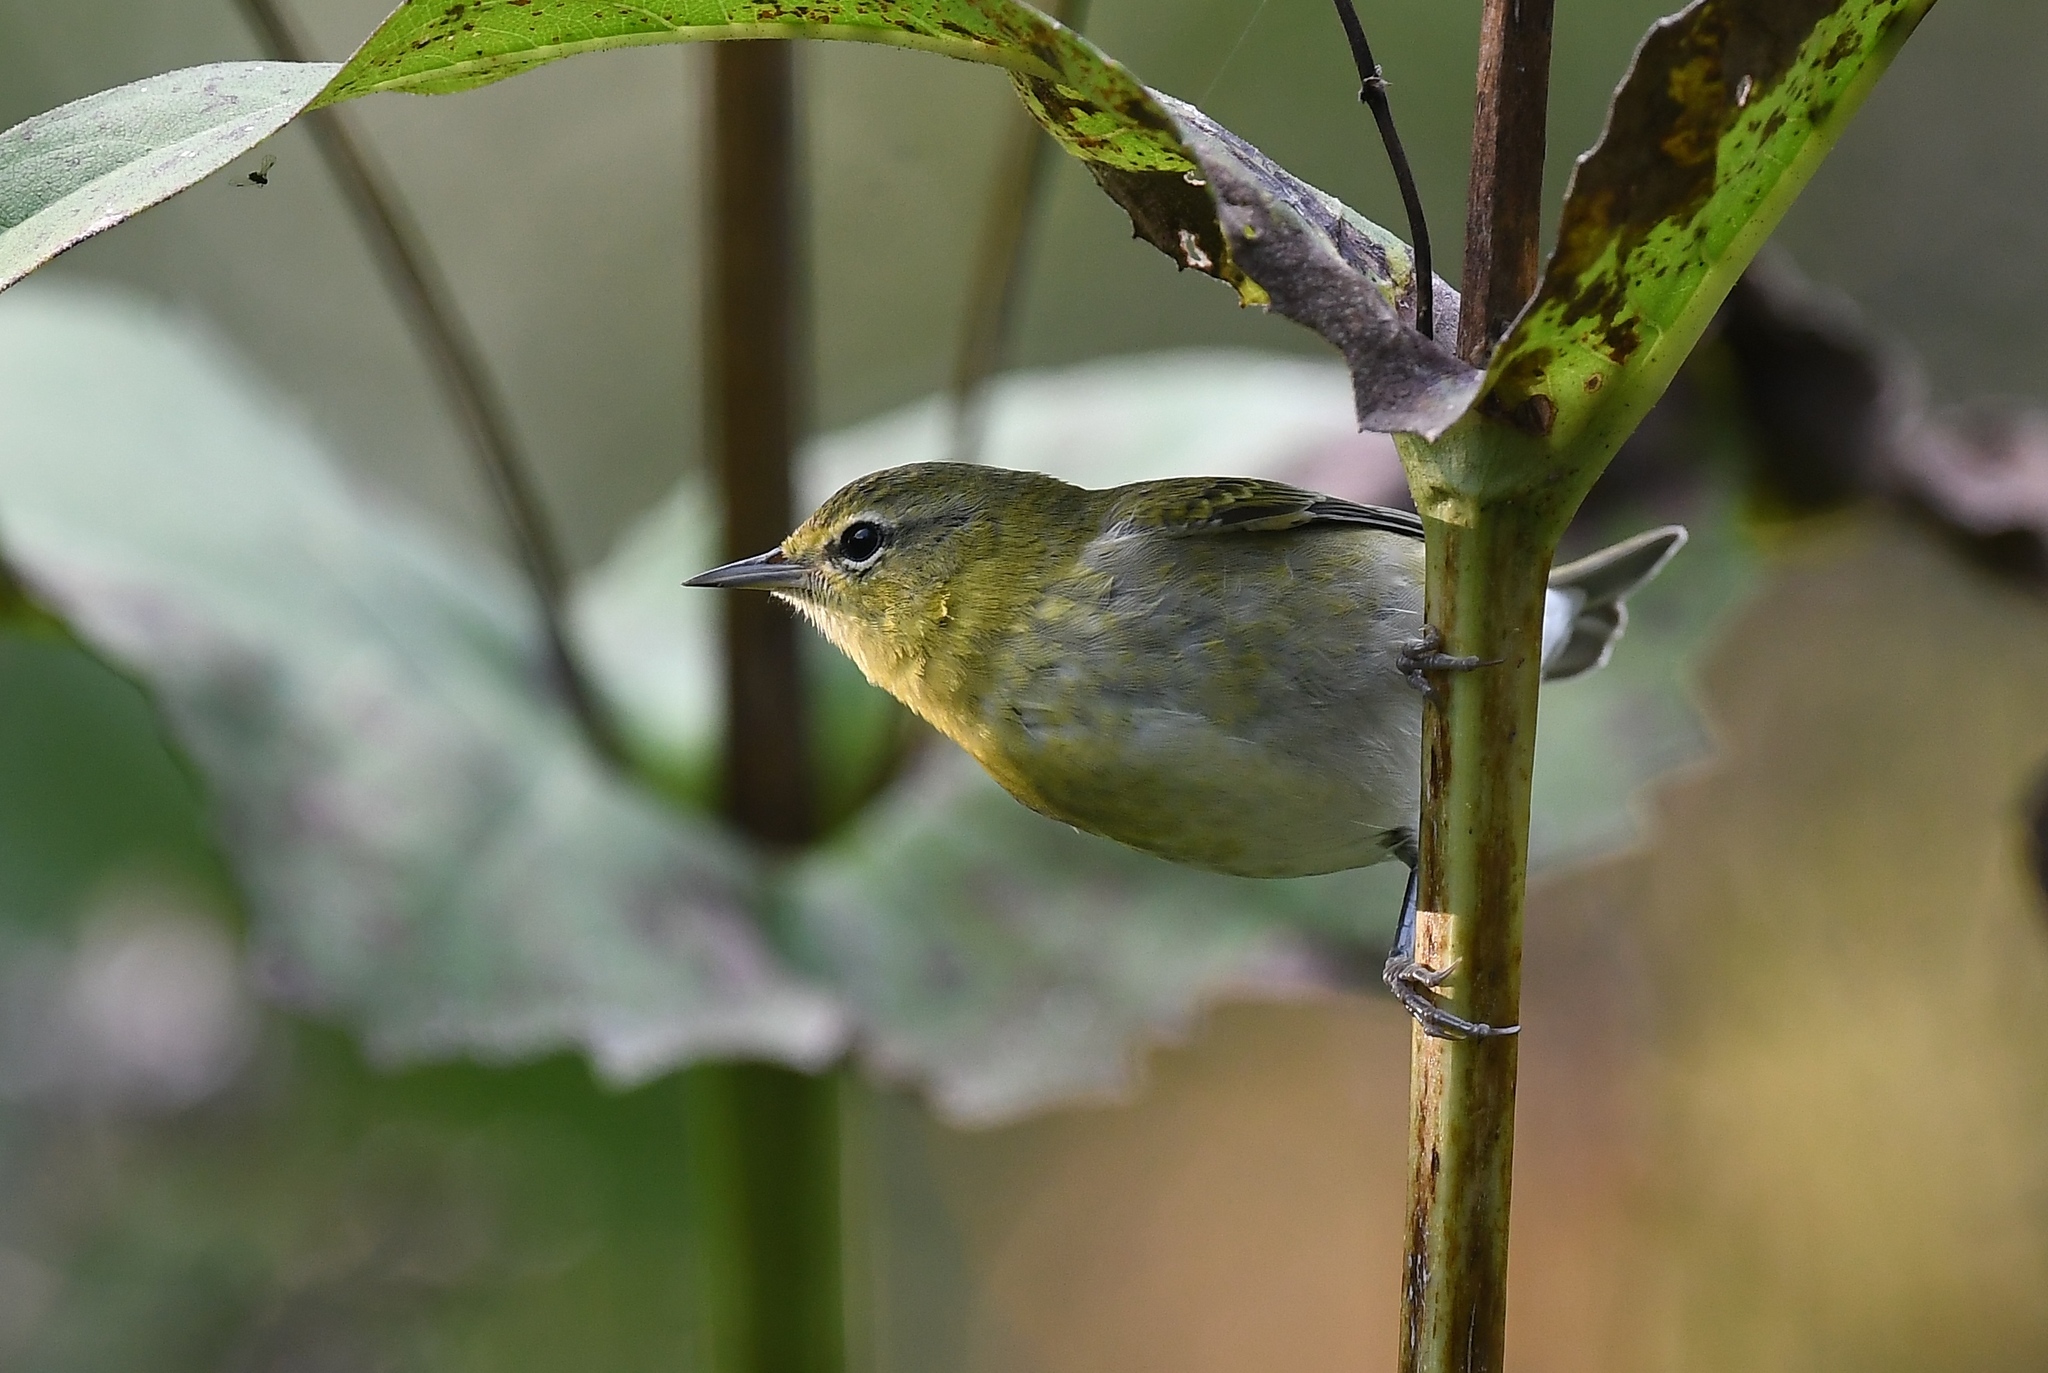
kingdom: Animalia
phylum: Chordata
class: Aves
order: Passeriformes
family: Parulidae
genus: Leiothlypis
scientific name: Leiothlypis peregrina
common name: Tennessee warbler
